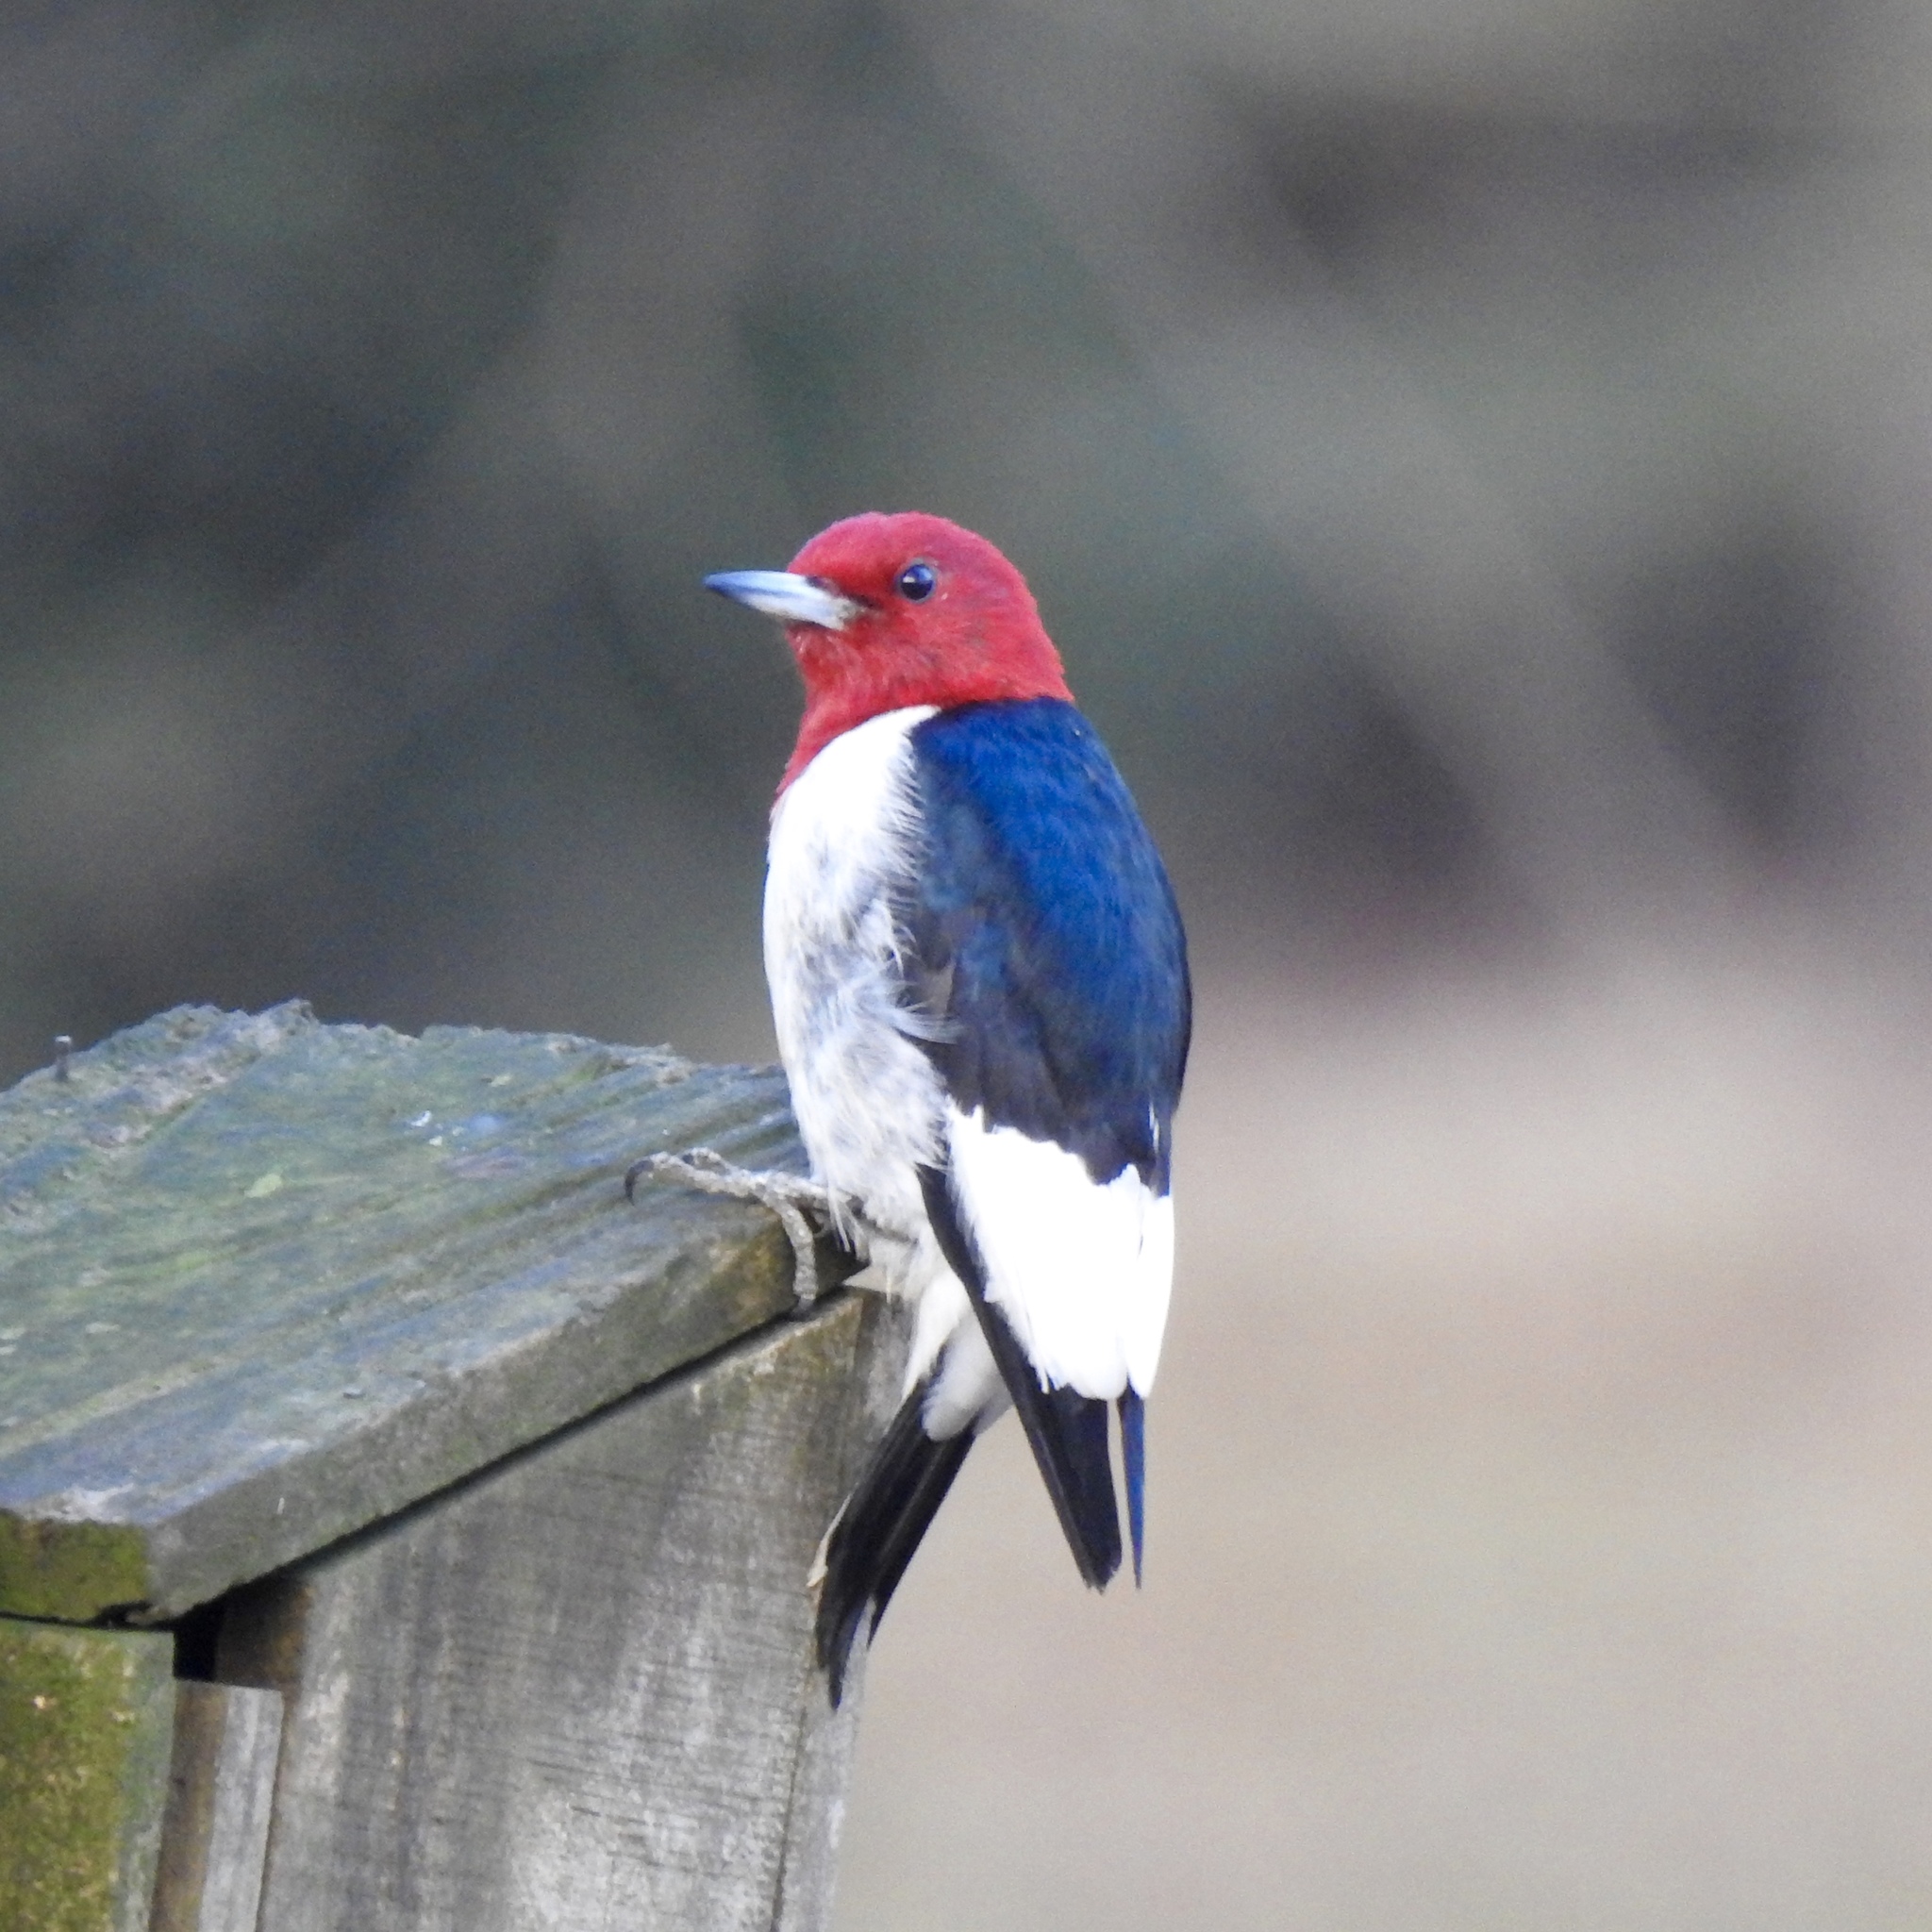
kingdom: Animalia
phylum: Chordata
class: Aves
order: Piciformes
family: Picidae
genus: Melanerpes
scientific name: Melanerpes erythrocephalus
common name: Red-headed woodpecker
